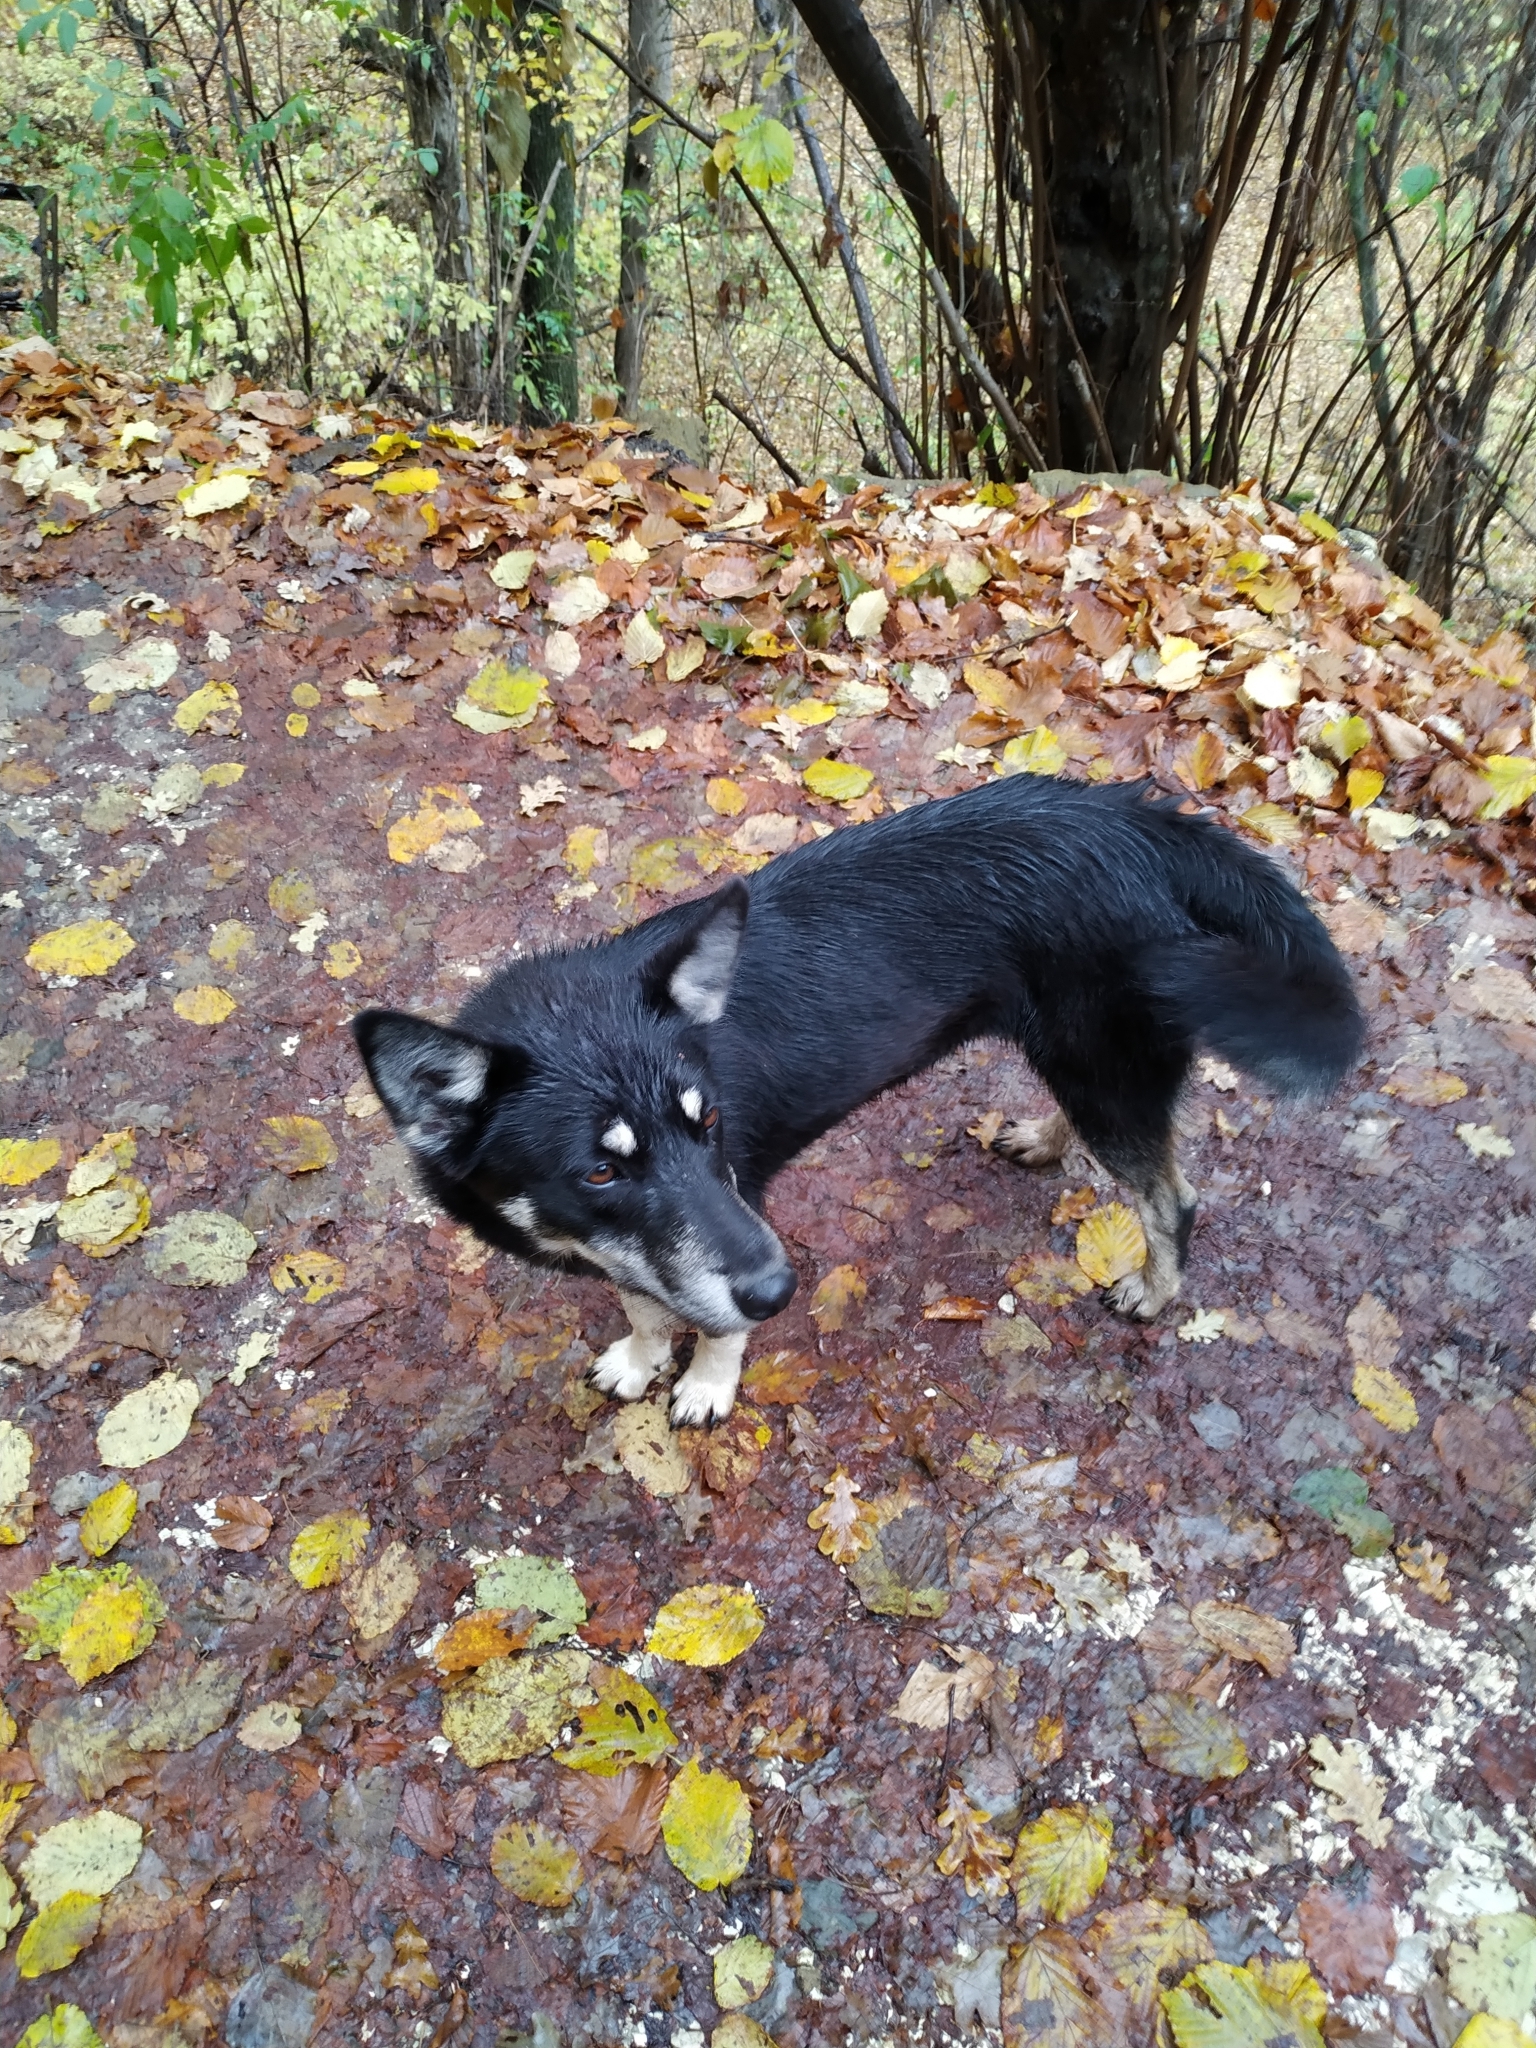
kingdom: Animalia
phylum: Chordata
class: Mammalia
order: Carnivora
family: Canidae
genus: Canis
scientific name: Canis lupus
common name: Gray wolf
